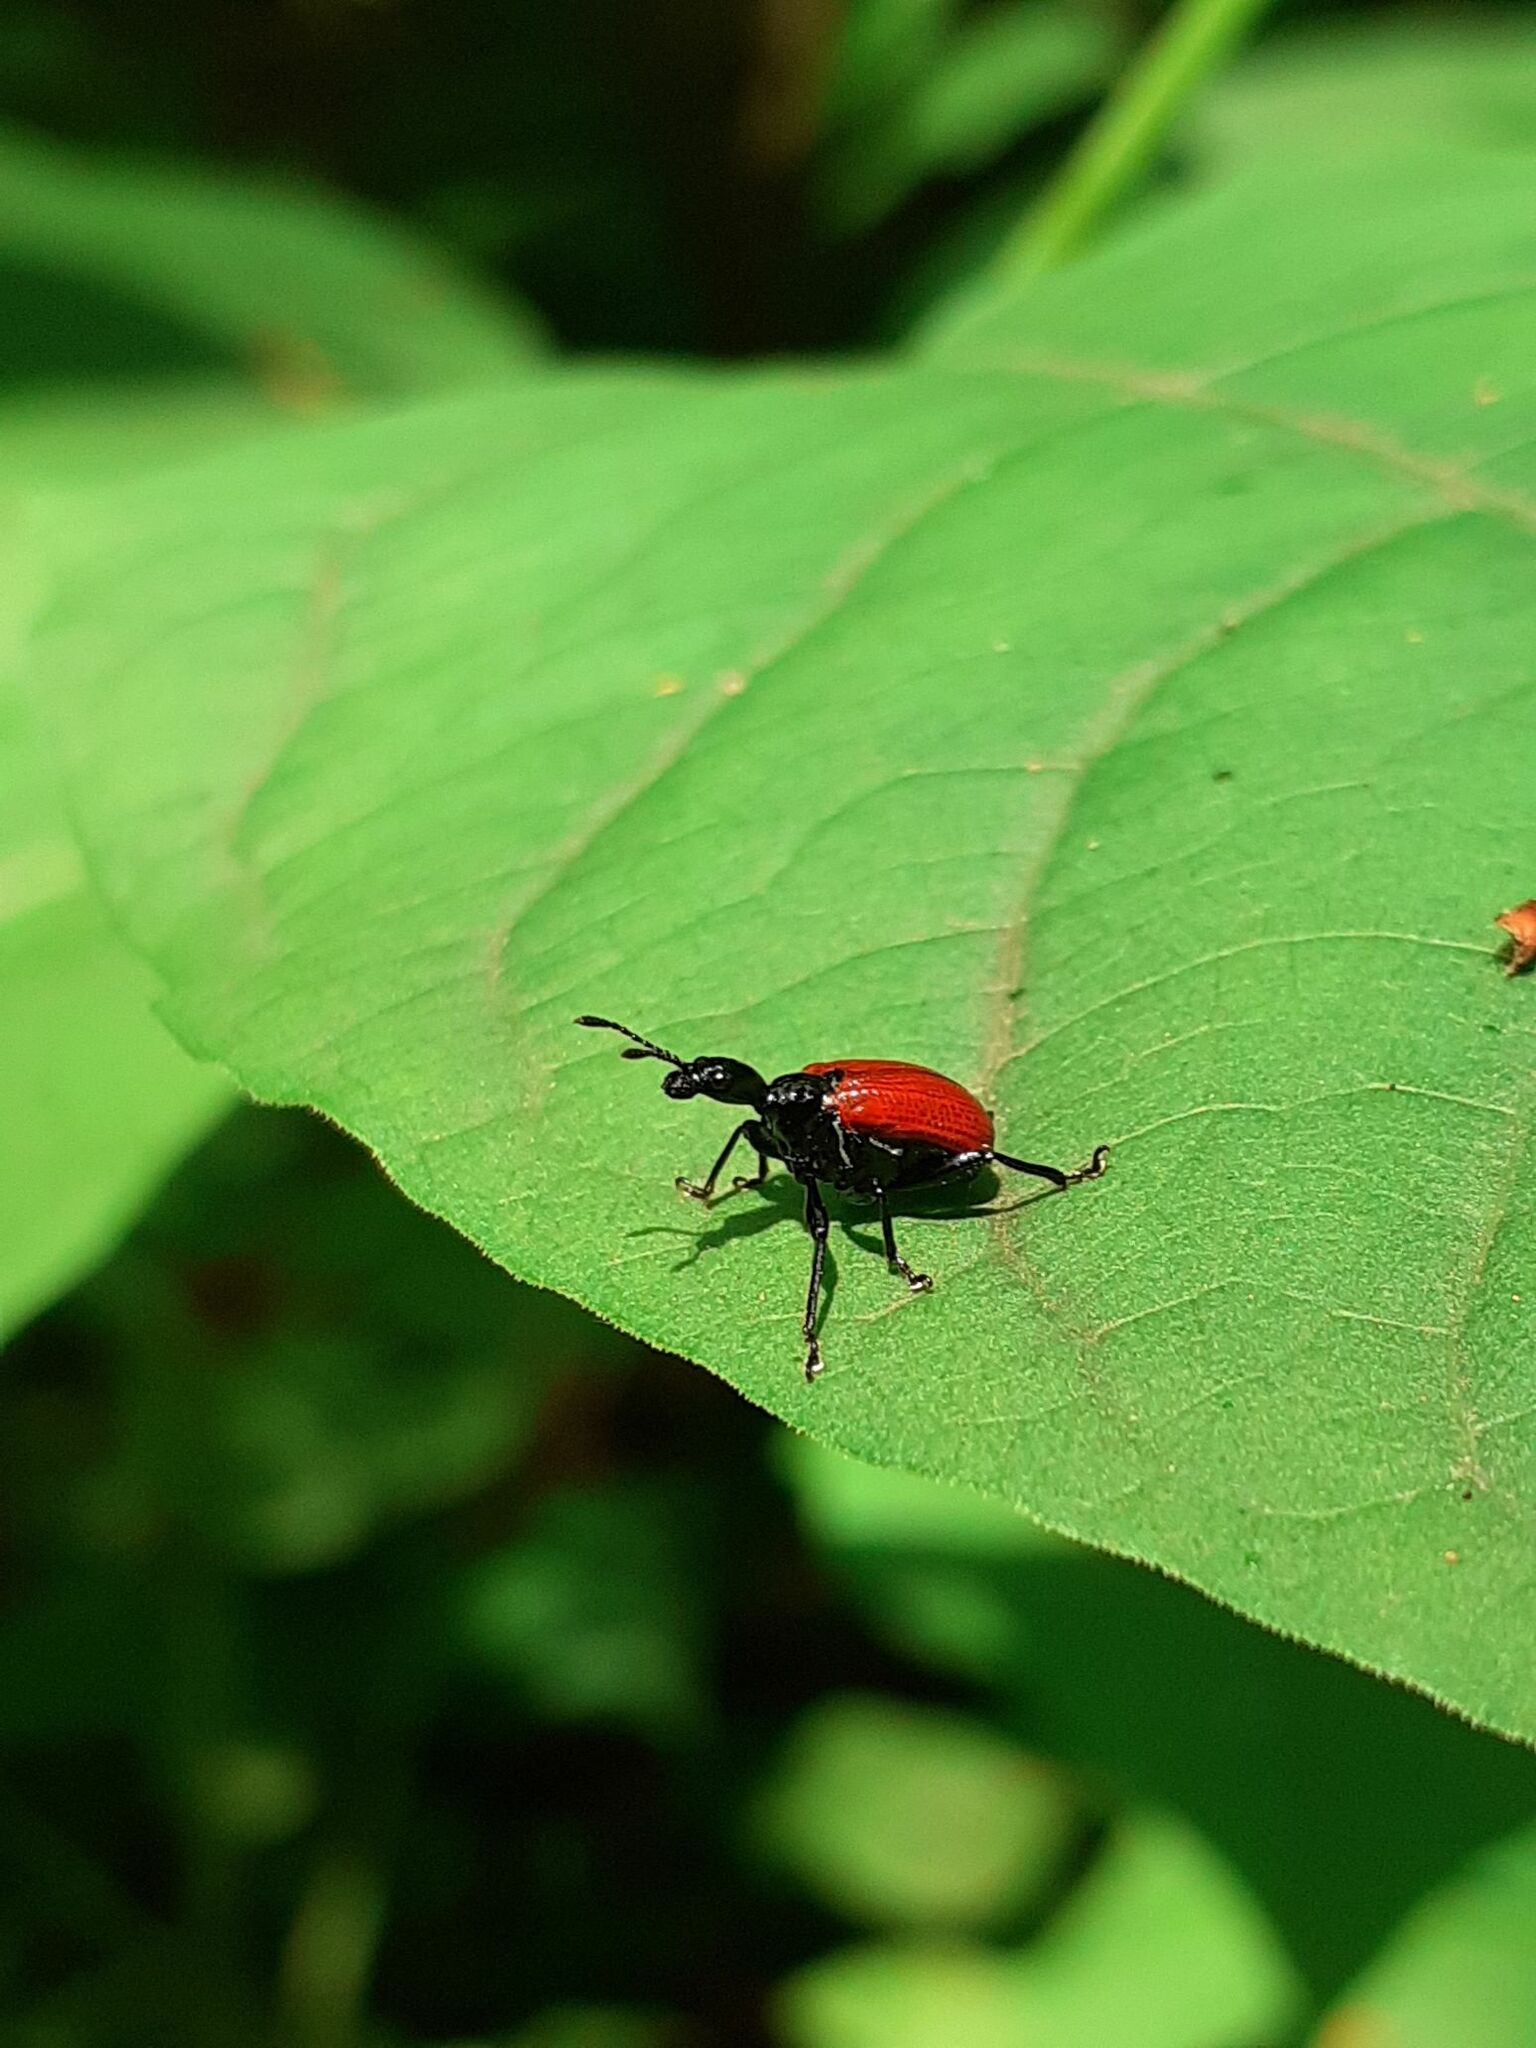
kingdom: Animalia
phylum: Arthropoda
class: Insecta
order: Coleoptera
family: Attelabidae
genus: Apoderus
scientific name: Apoderus coryli
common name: Hazel leaf roller
